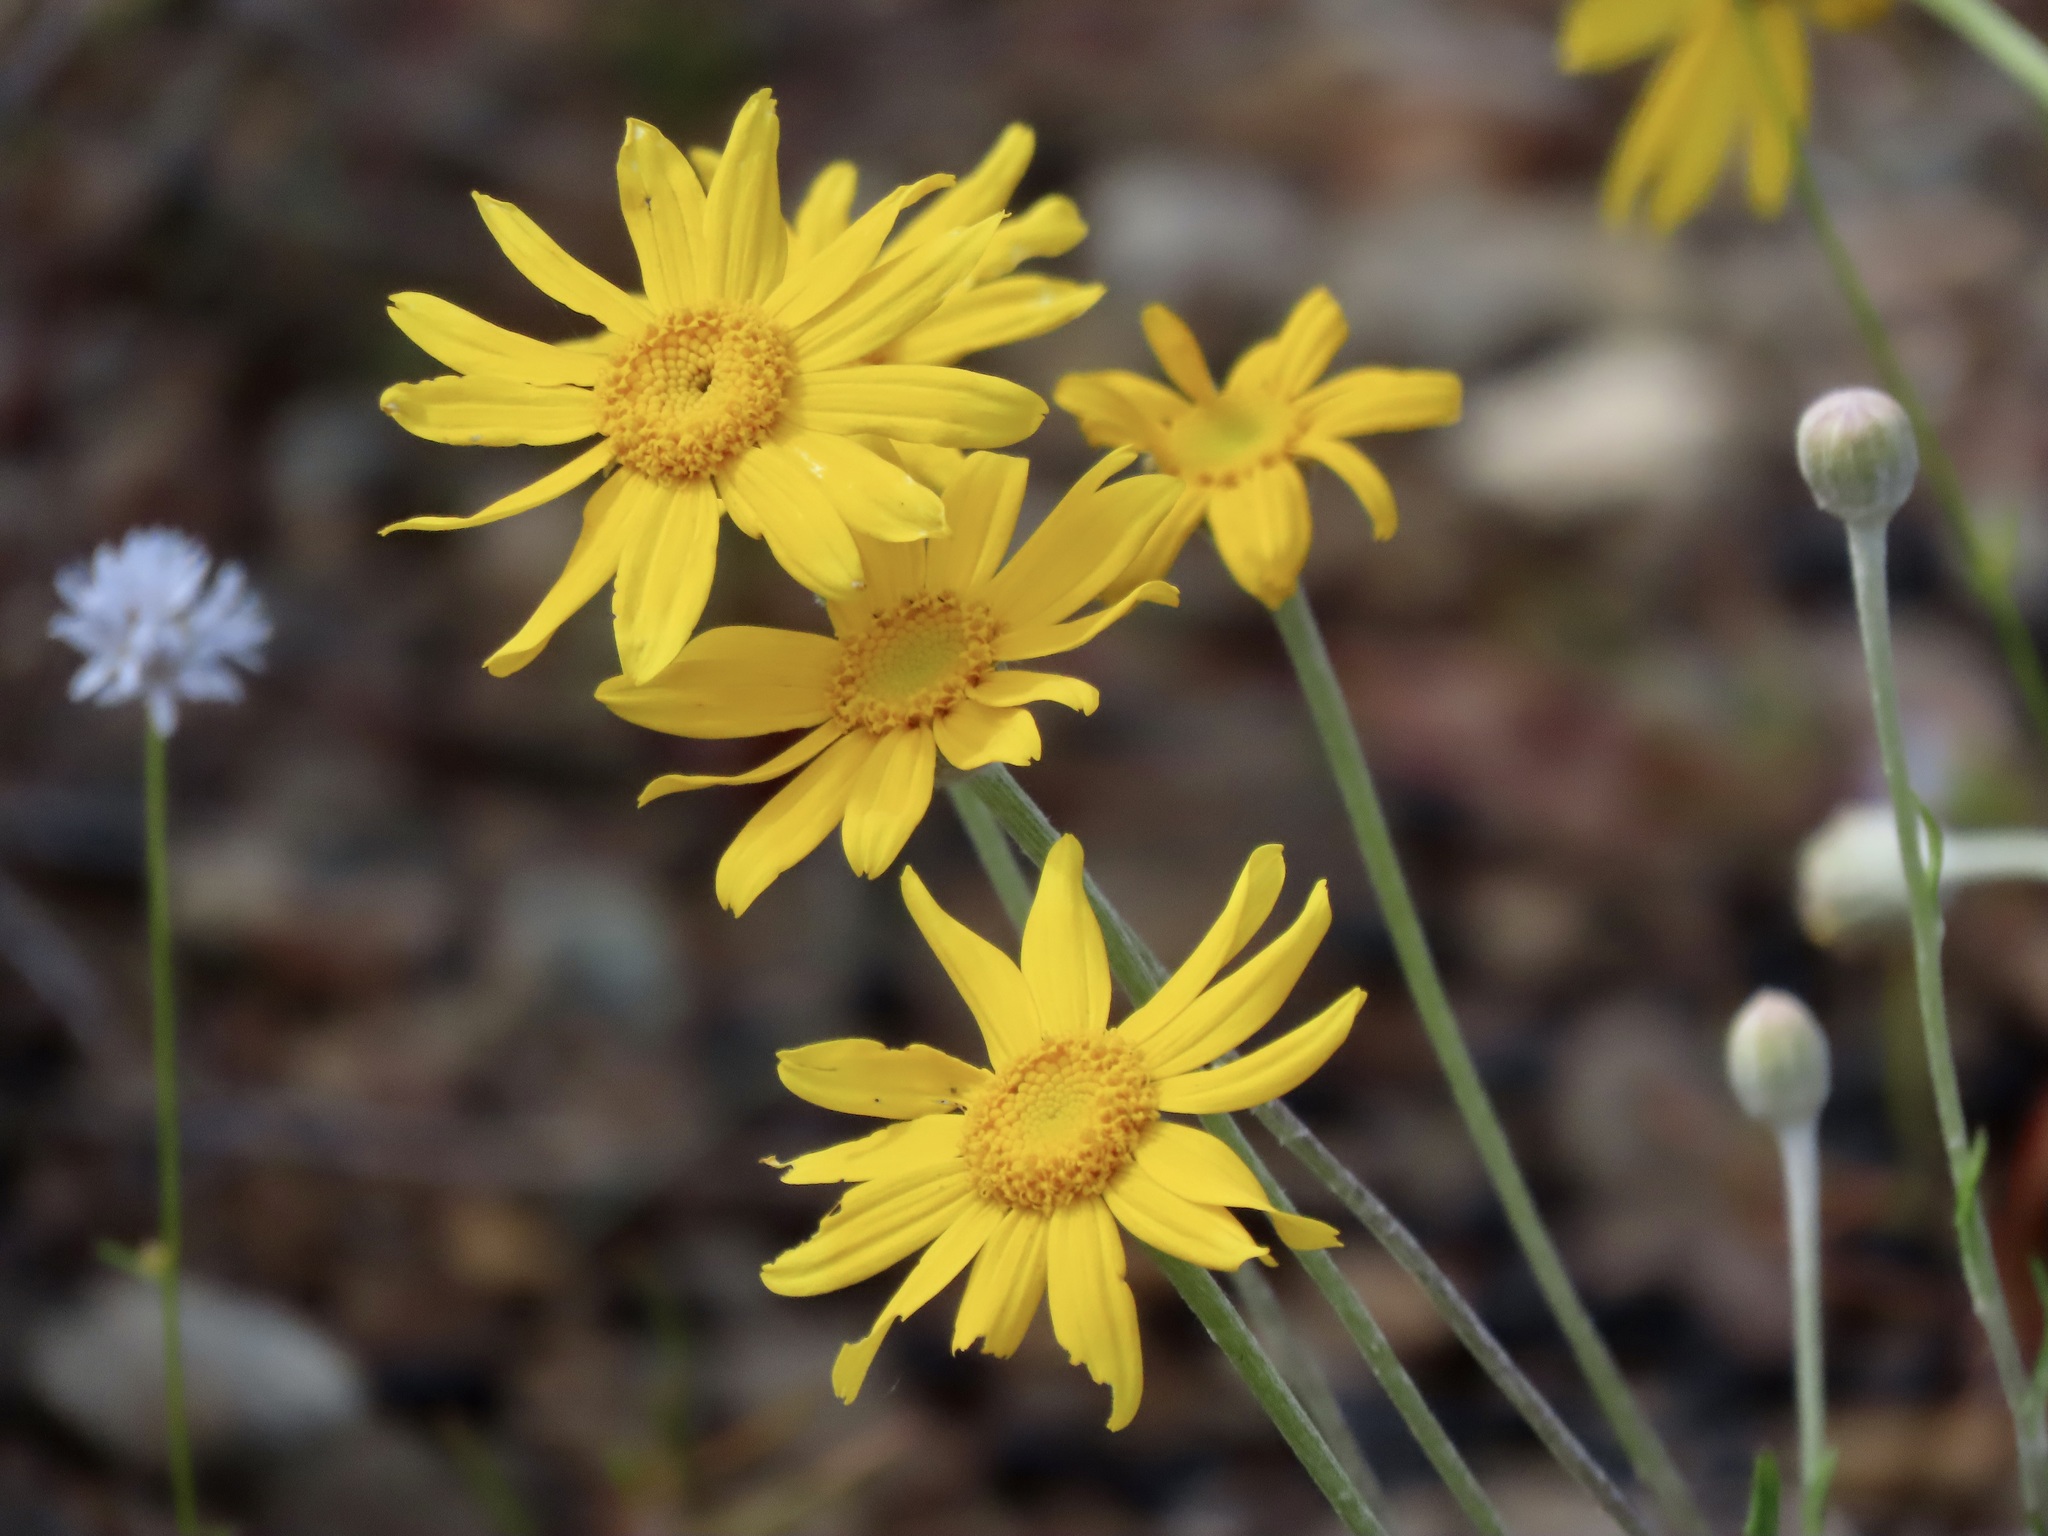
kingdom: Plantae
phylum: Tracheophyta
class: Magnoliopsida
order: Asterales
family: Asteraceae
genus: Eriophyllum
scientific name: Eriophyllum lanatum
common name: Common woolly-sunflower
